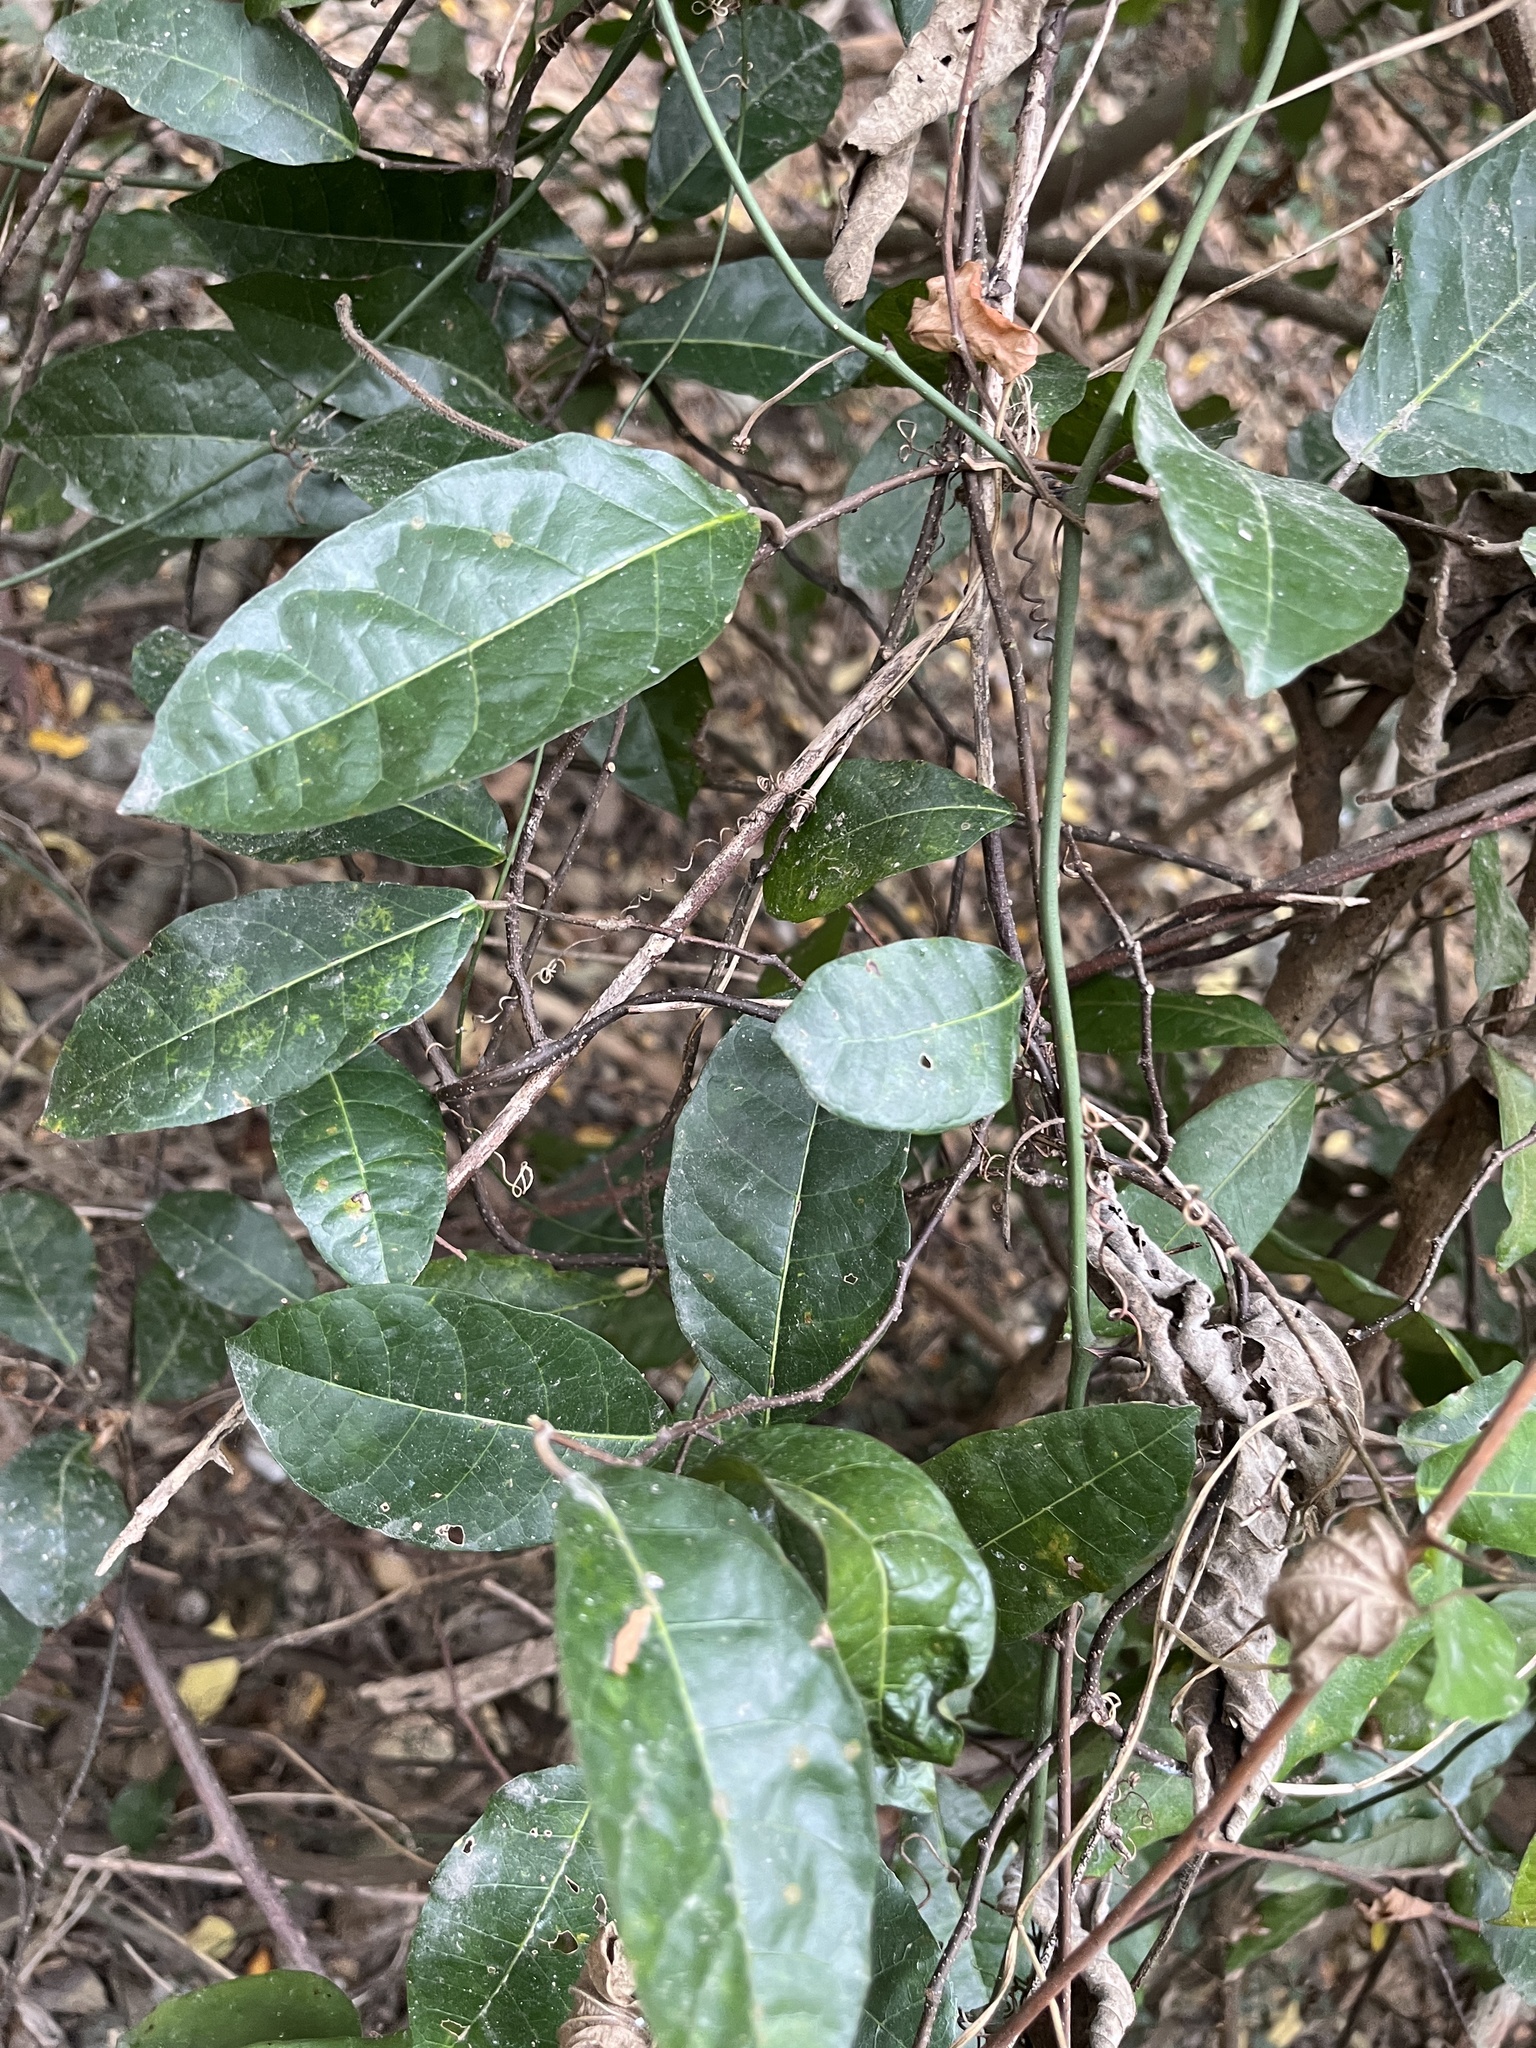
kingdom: Plantae
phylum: Tracheophyta
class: Magnoliopsida
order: Rosales
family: Moraceae
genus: Malaisia
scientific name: Malaisia scandens
